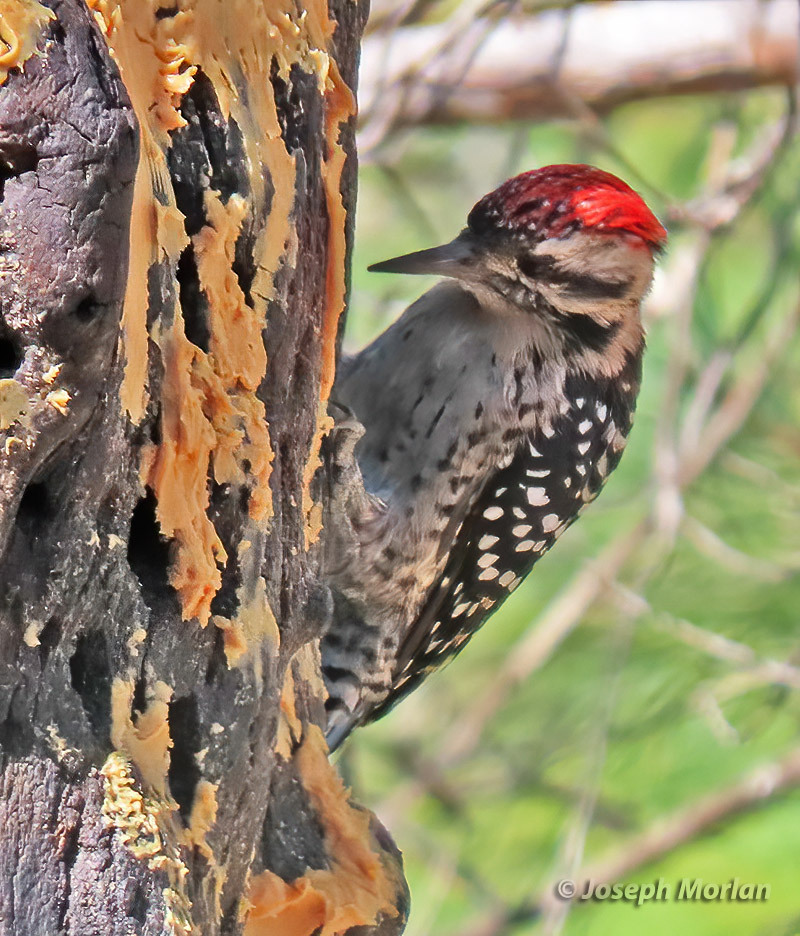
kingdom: Animalia
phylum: Chordata
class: Aves
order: Piciformes
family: Picidae
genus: Dryobates
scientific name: Dryobates scalaris
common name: Ladder-backed woodpecker
